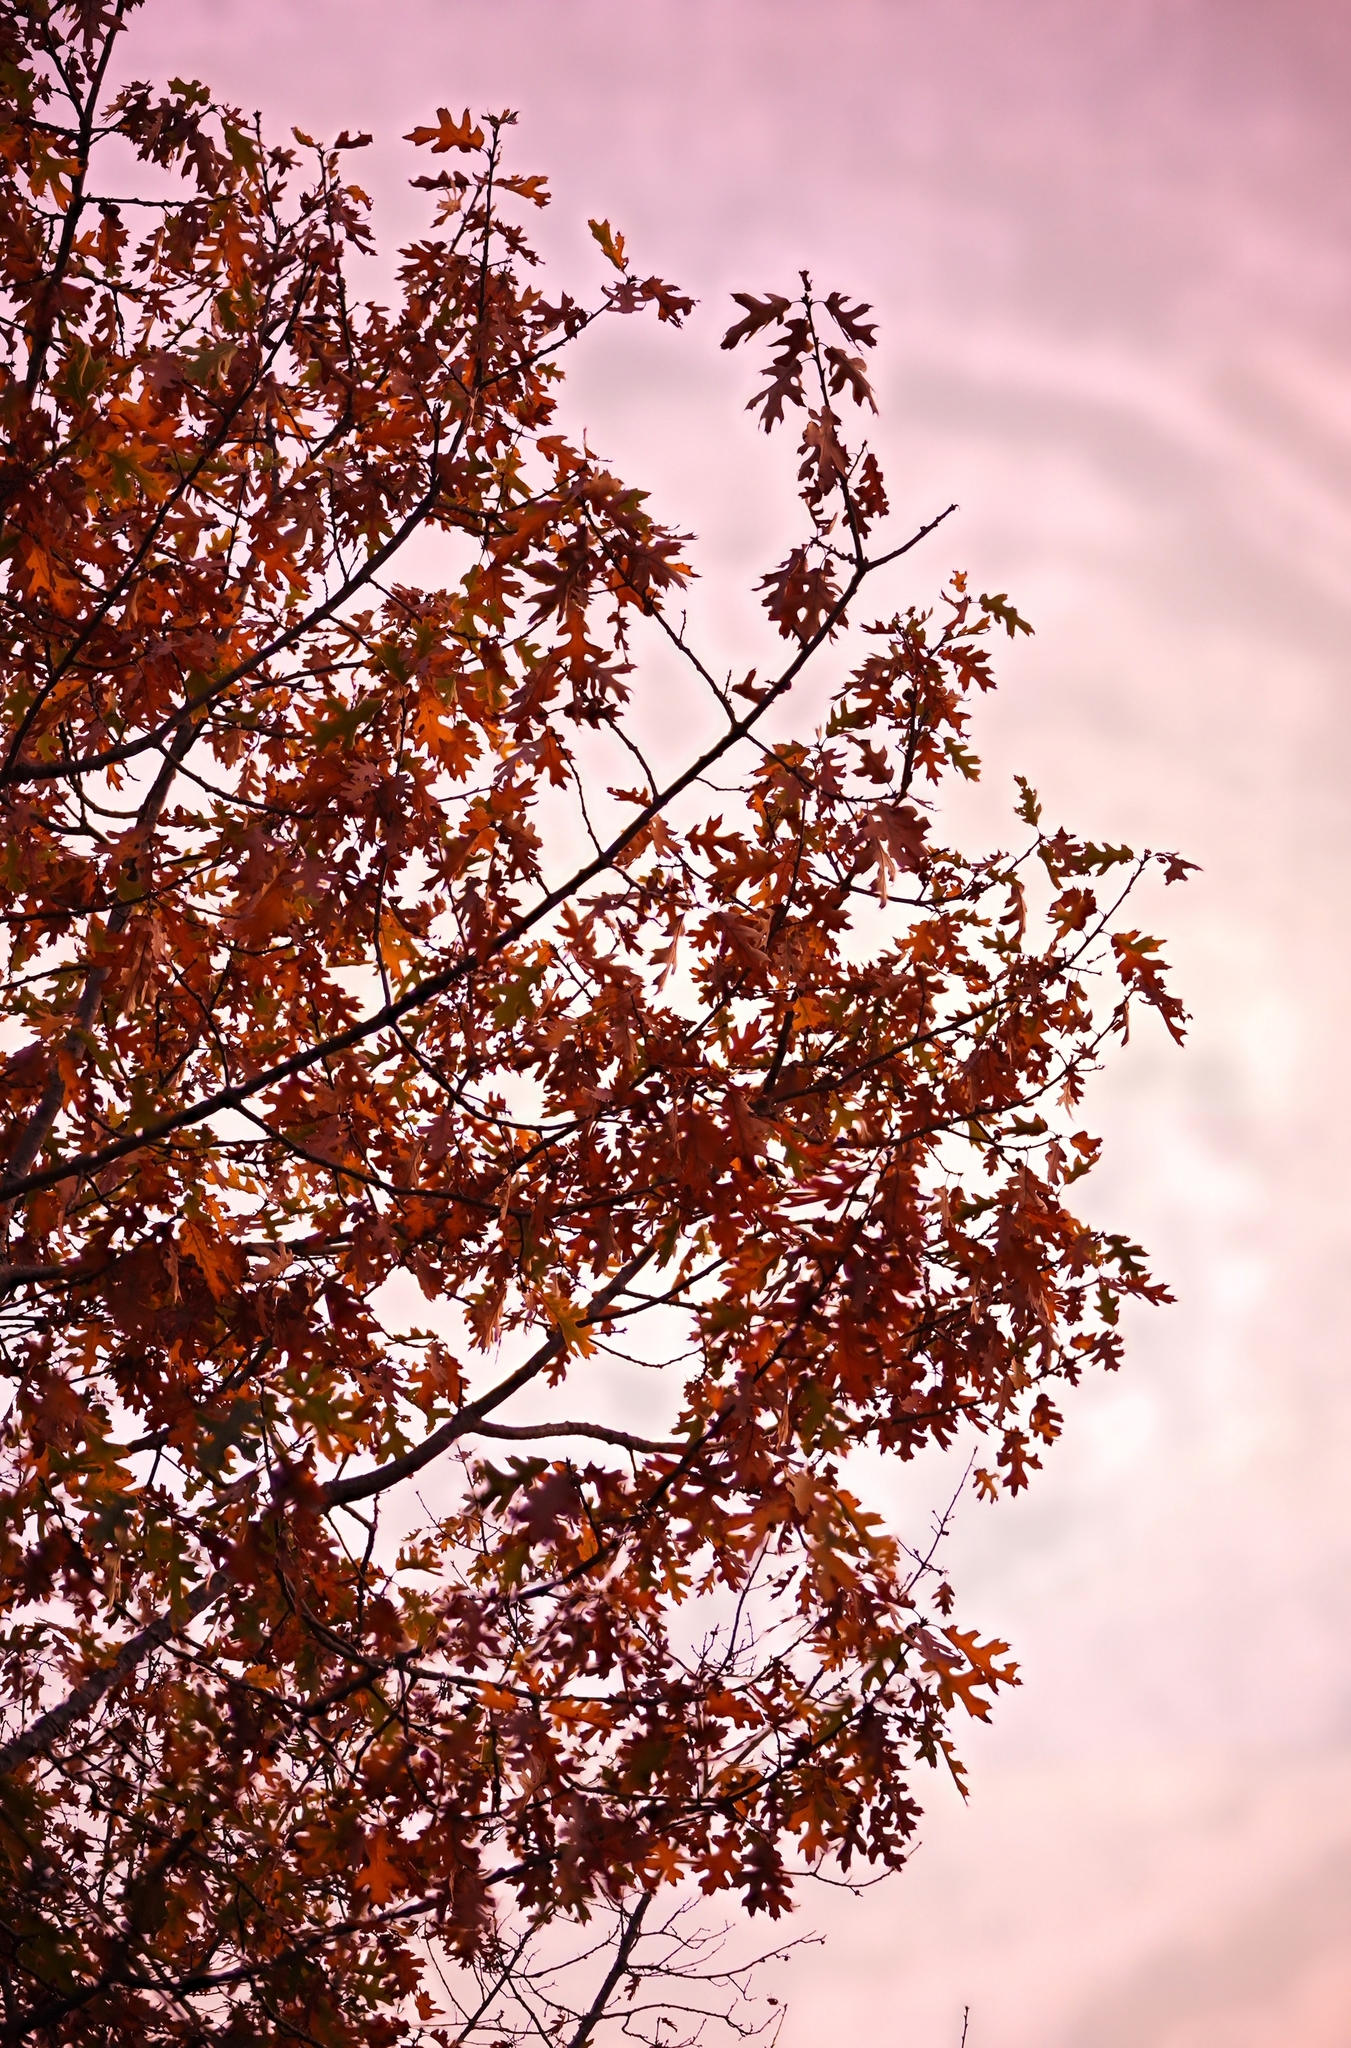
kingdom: Plantae
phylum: Tracheophyta
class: Magnoliopsida
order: Fagales
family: Fagaceae
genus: Quercus
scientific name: Quercus kelloggii
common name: California black oak
